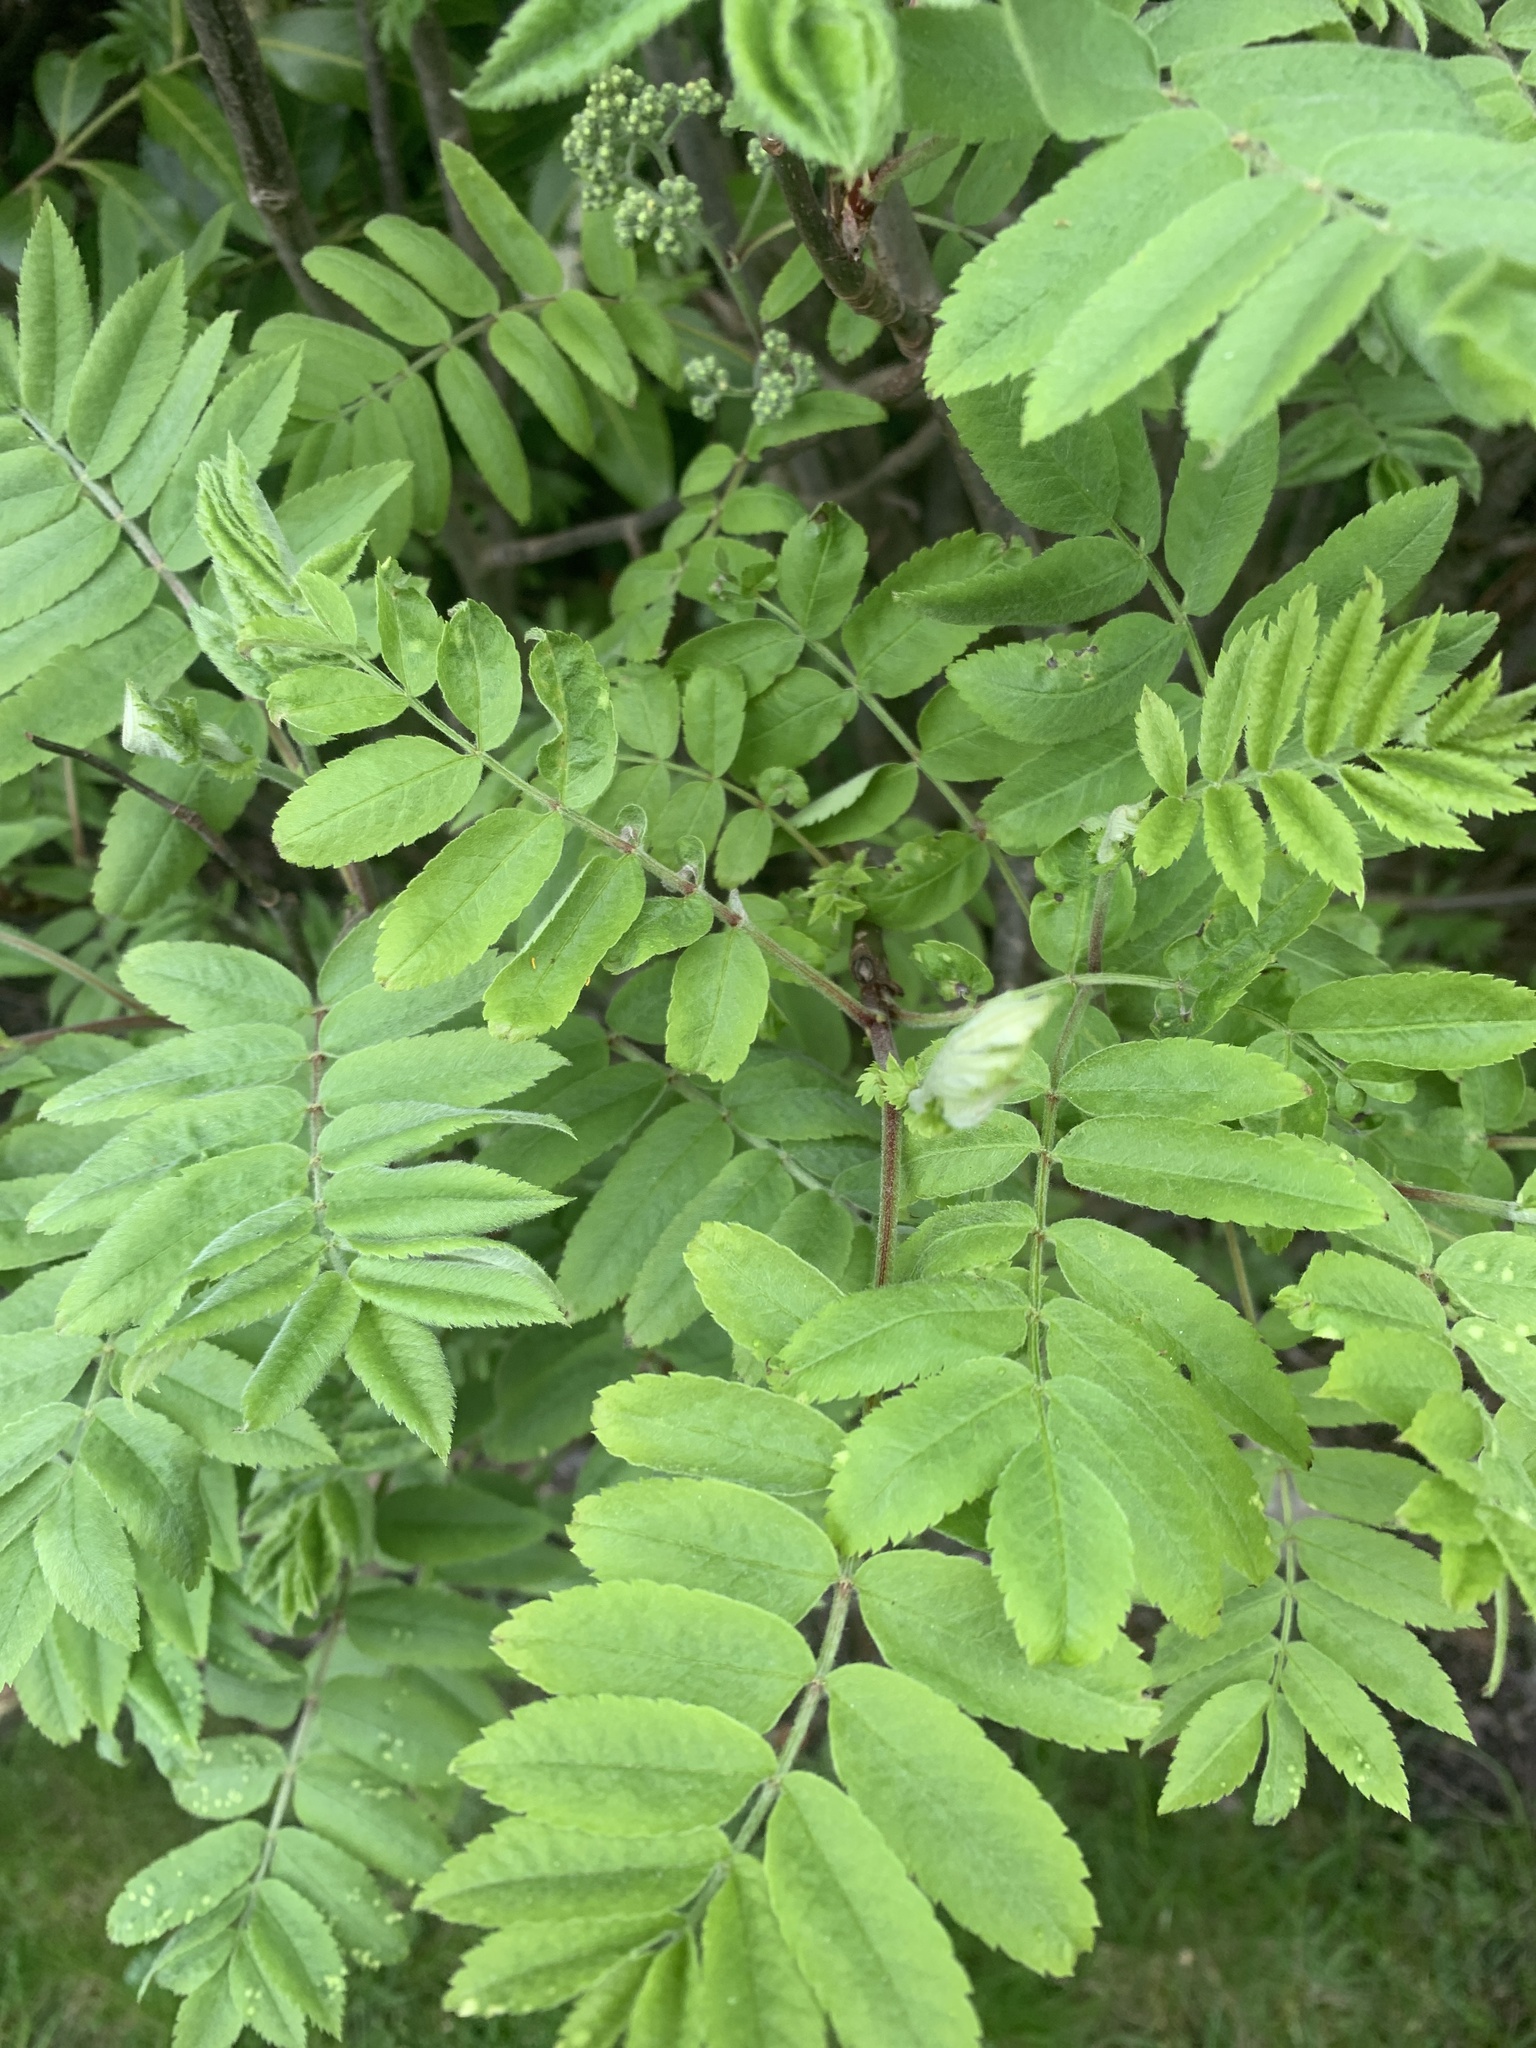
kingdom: Plantae
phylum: Tracheophyta
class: Magnoliopsida
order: Rosales
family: Rosaceae
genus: Sorbus
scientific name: Sorbus aucuparia
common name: Rowan
